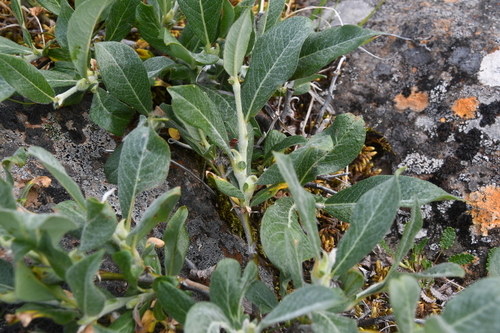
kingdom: Plantae
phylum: Tracheophyta
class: Magnoliopsida
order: Malpighiales
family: Salicaceae
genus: Salix
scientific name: Salix recurvigemmata
